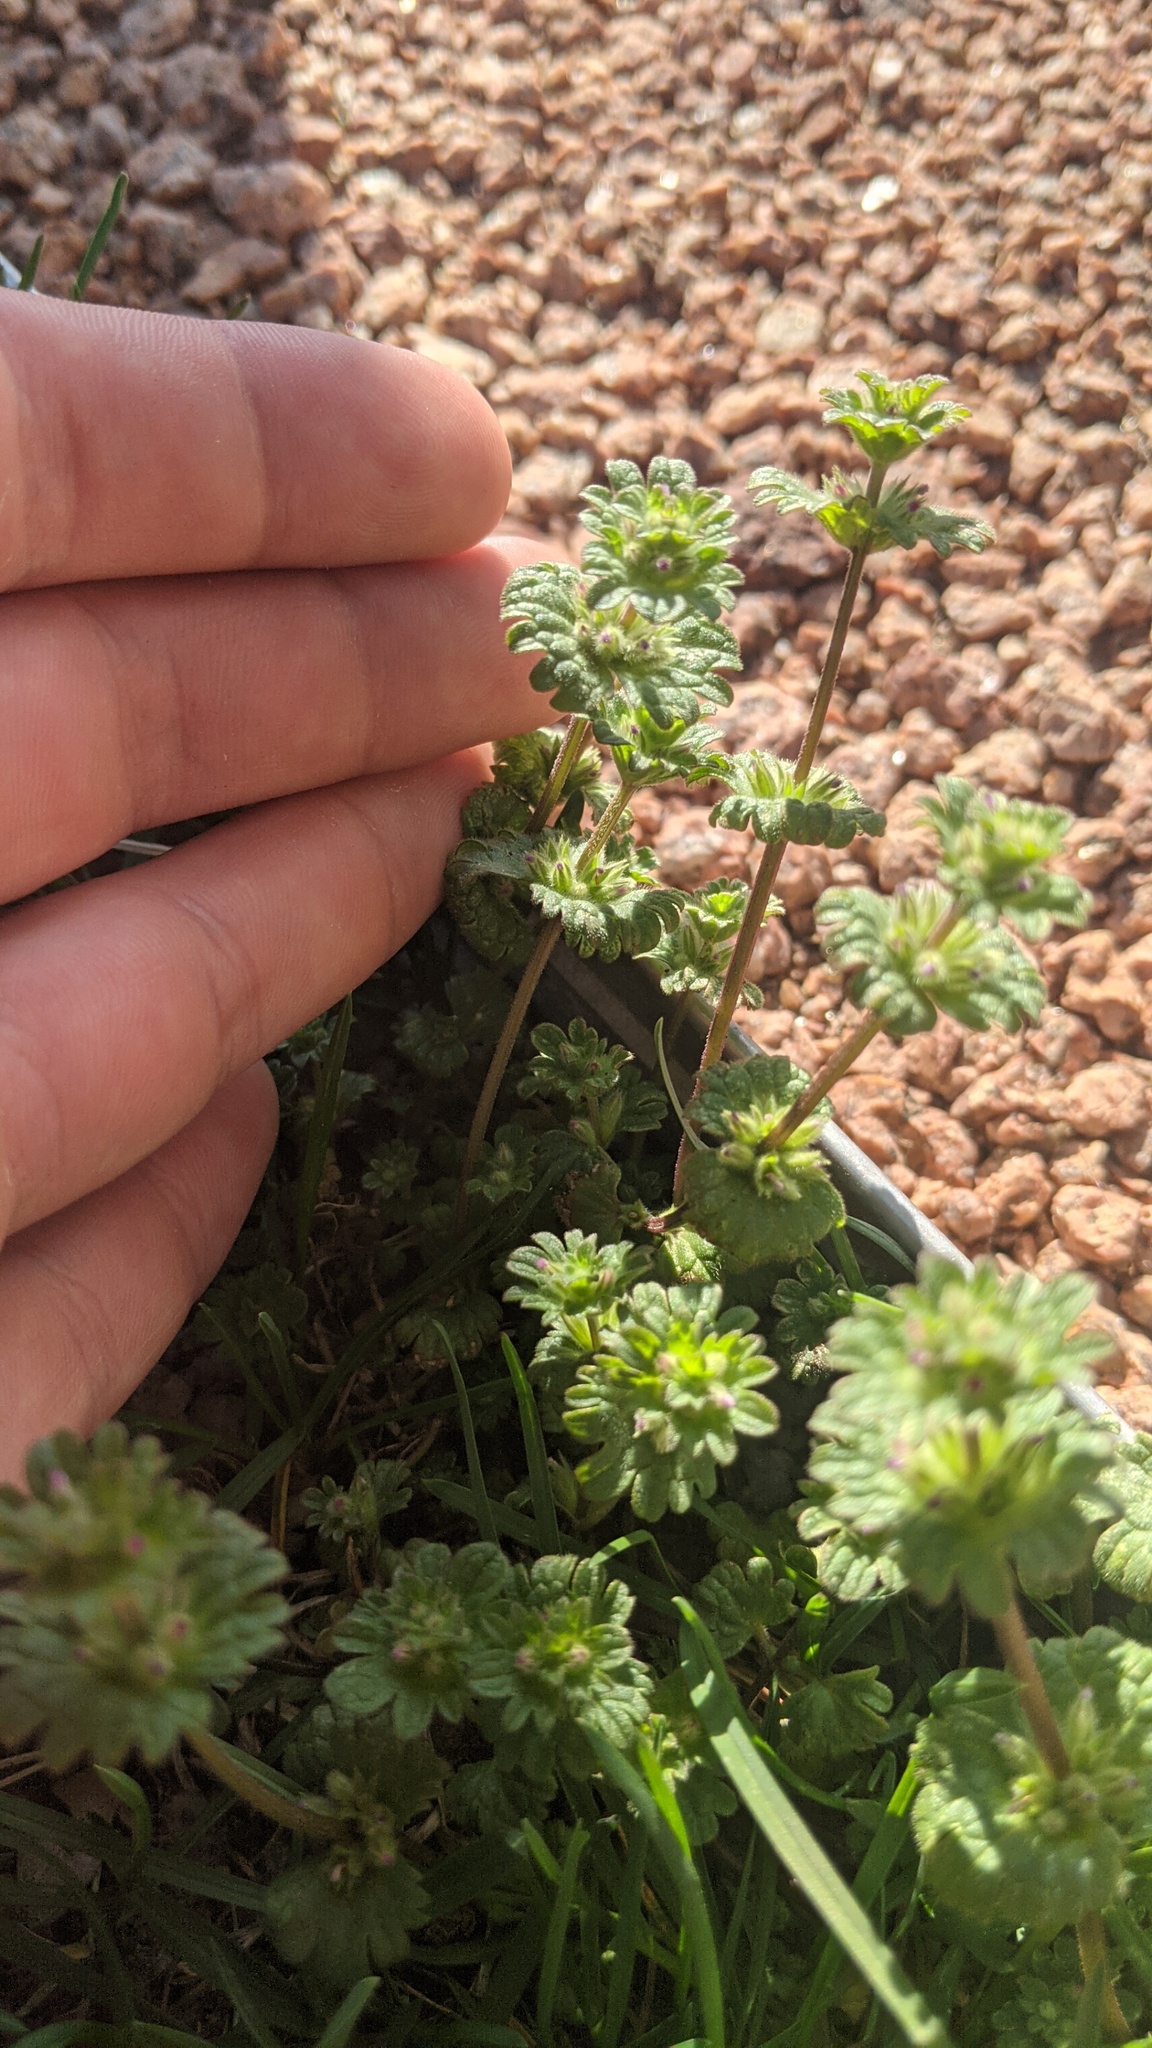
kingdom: Plantae
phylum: Tracheophyta
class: Magnoliopsida
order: Lamiales
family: Lamiaceae
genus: Lamium
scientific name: Lamium amplexicaule
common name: Henbit dead-nettle
